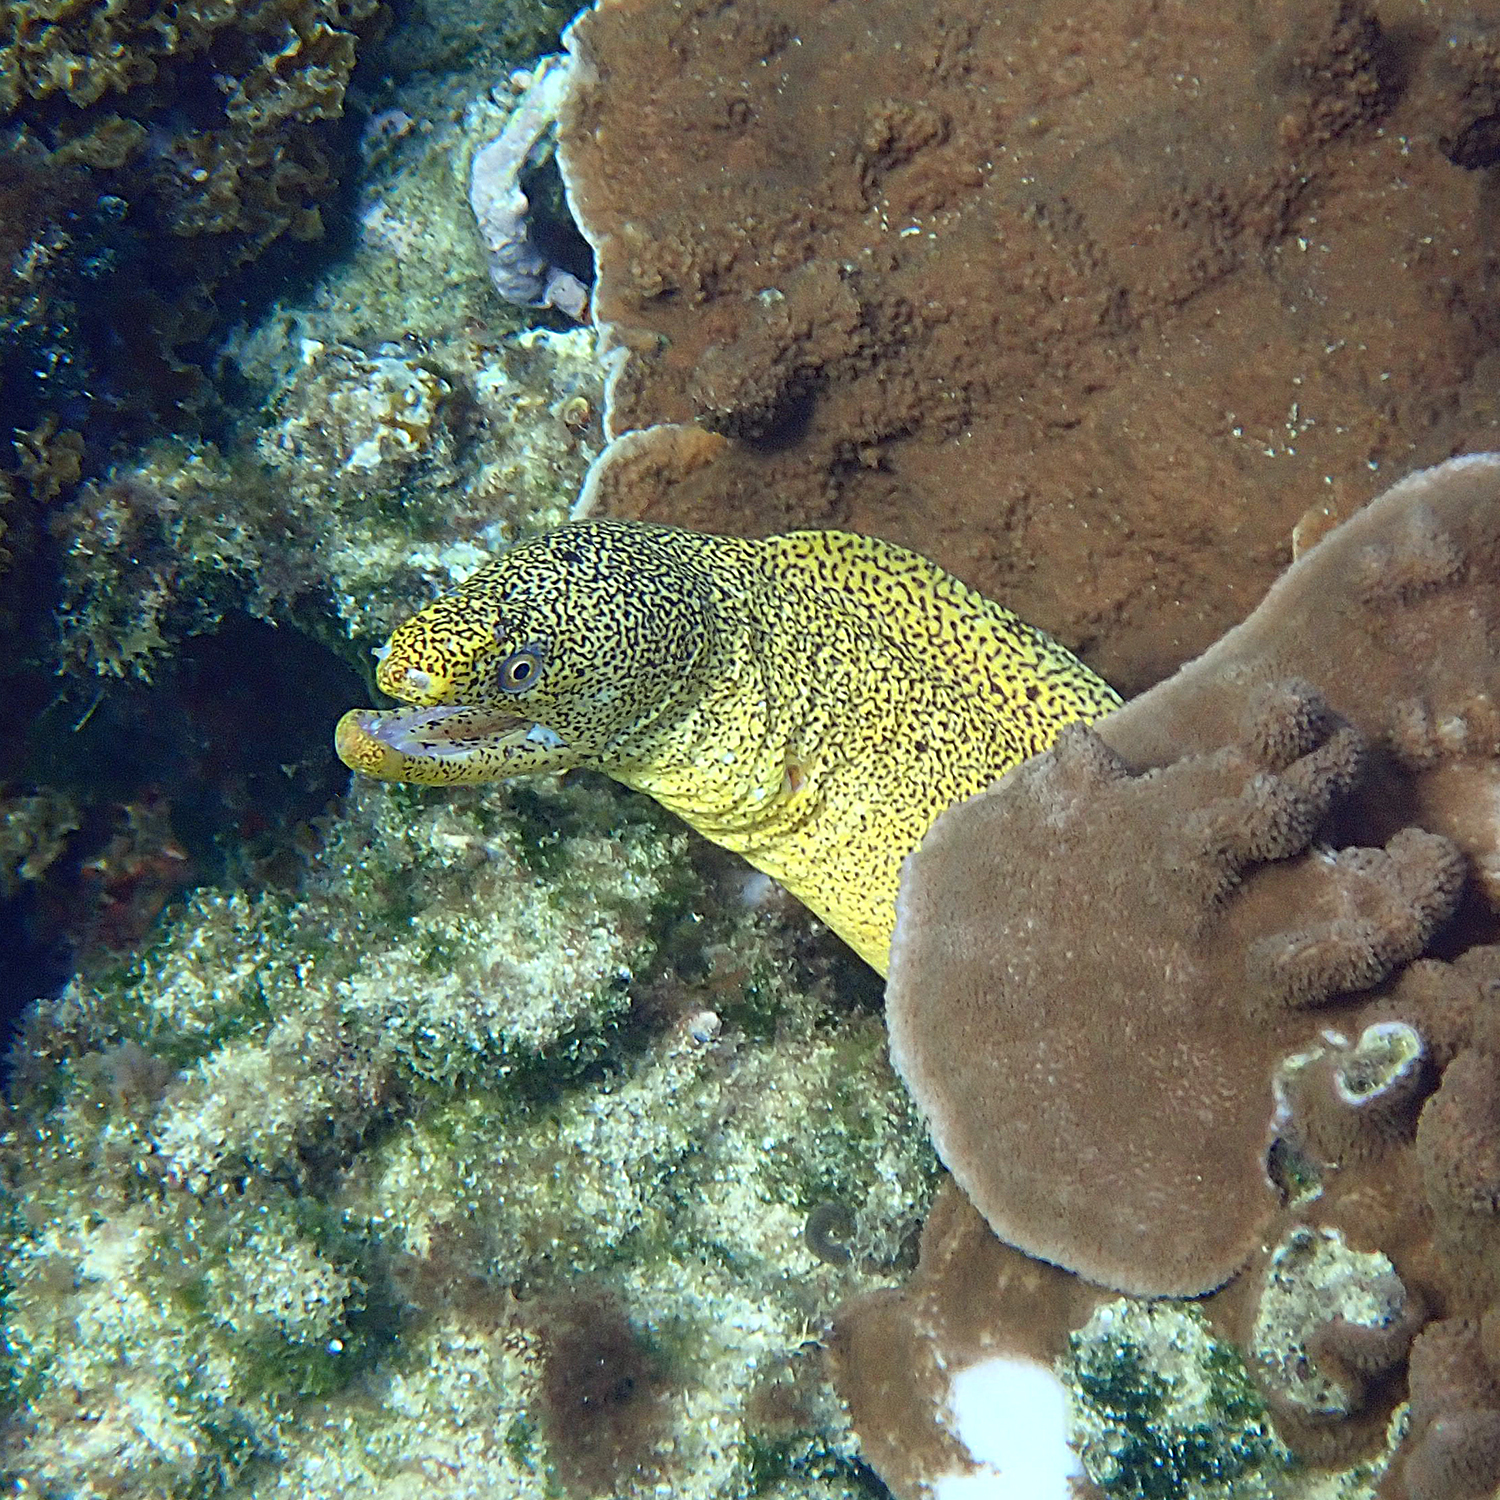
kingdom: Animalia
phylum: Chordata
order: Anguilliformes
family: Muraenidae
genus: Gymnothorax
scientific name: Gymnothorax eurostus
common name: Stout moray
